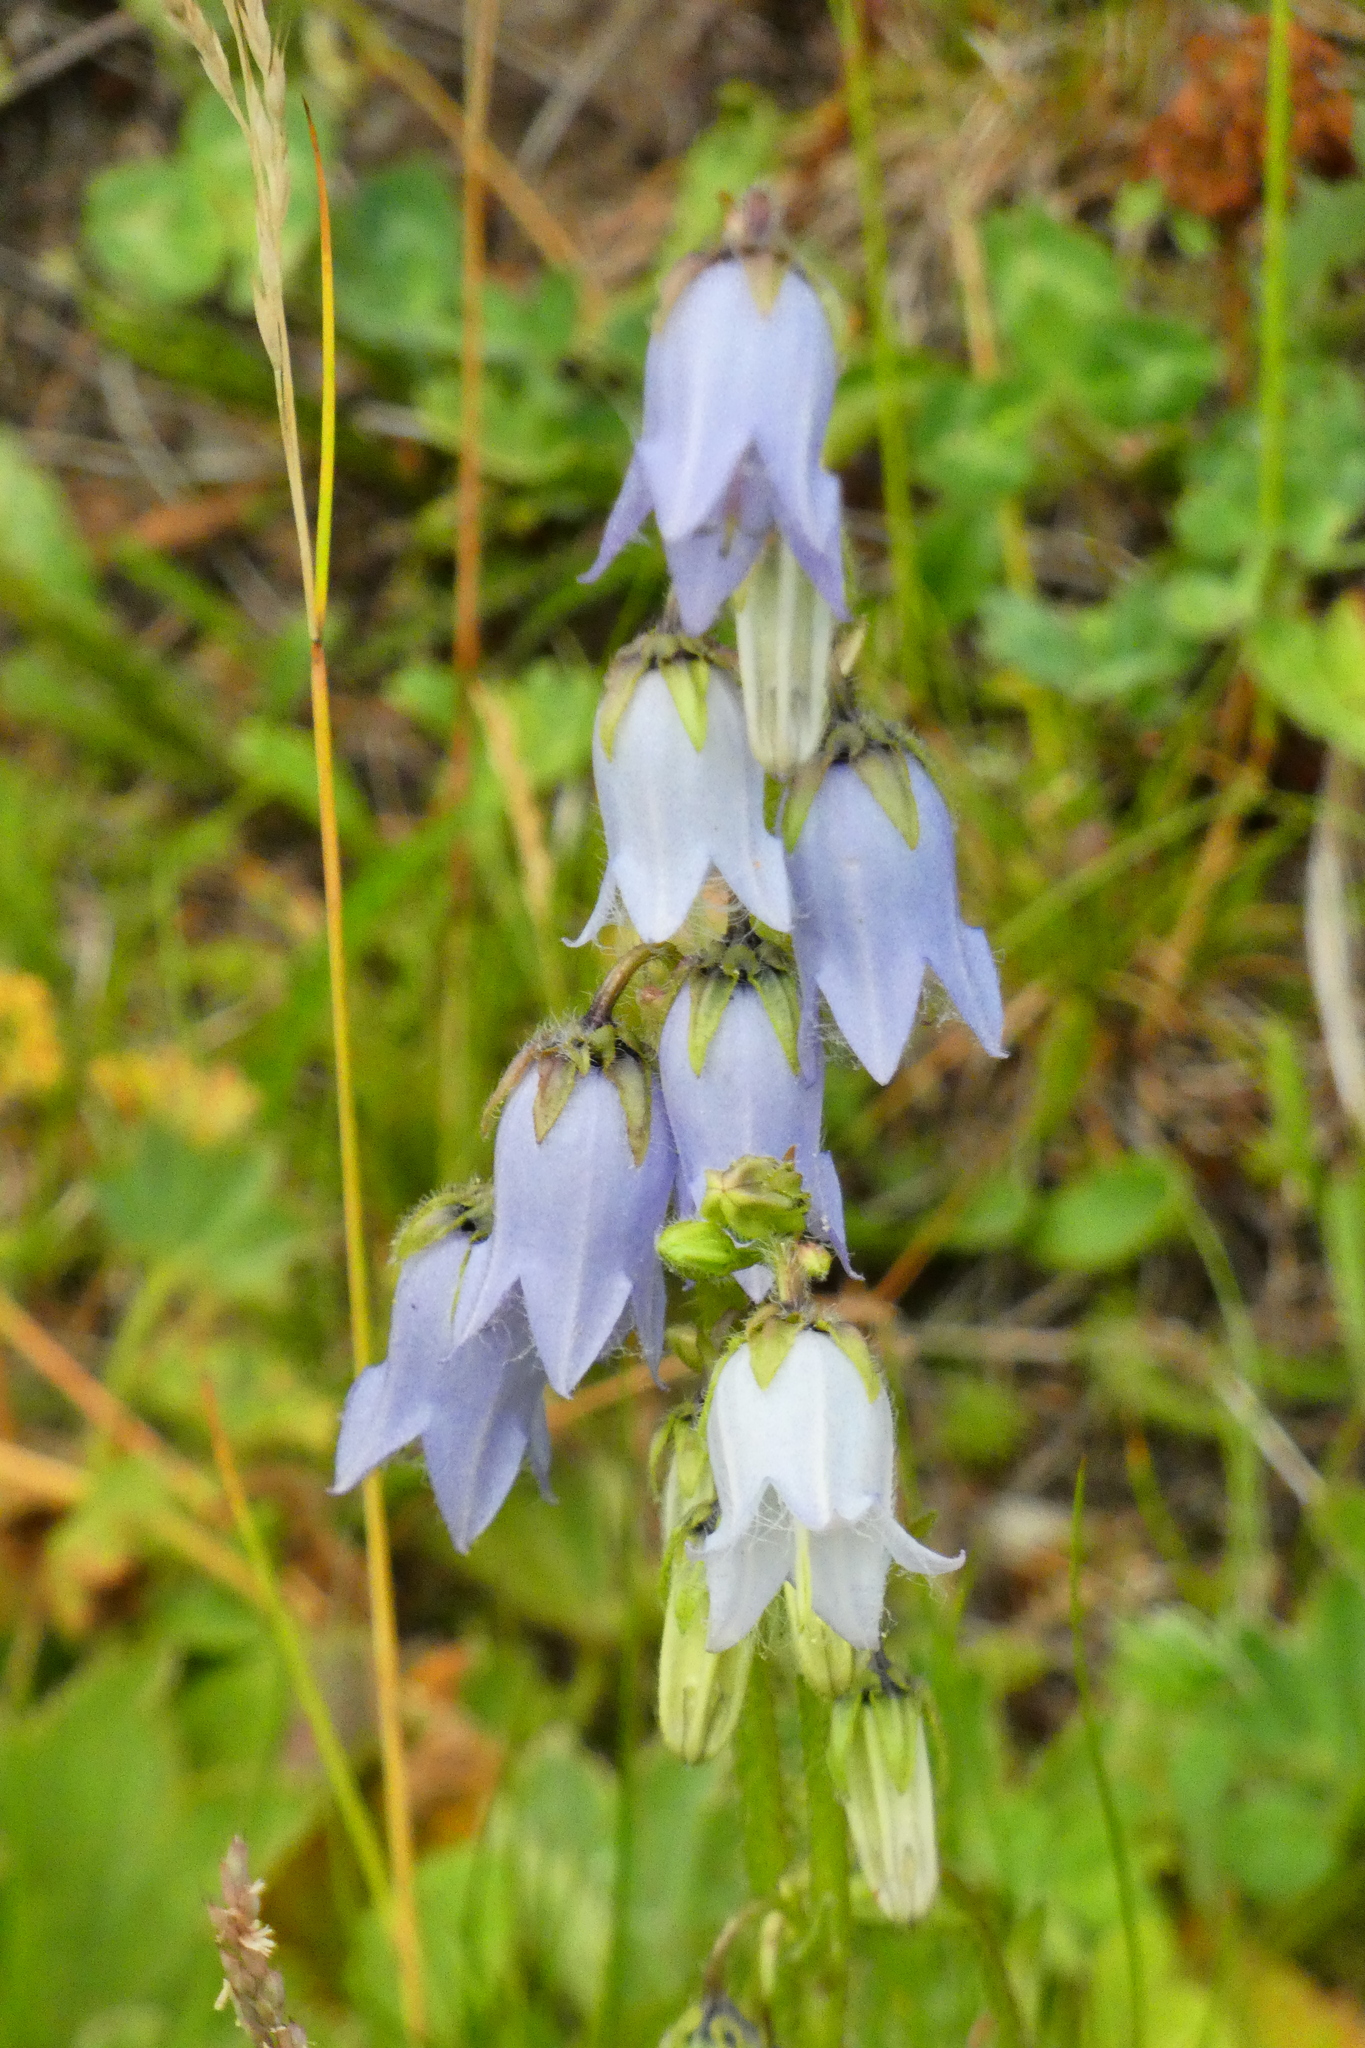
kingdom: Plantae
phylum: Tracheophyta
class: Magnoliopsida
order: Asterales
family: Campanulaceae
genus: Campanula
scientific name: Campanula barbata
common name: Bearded bellflower
